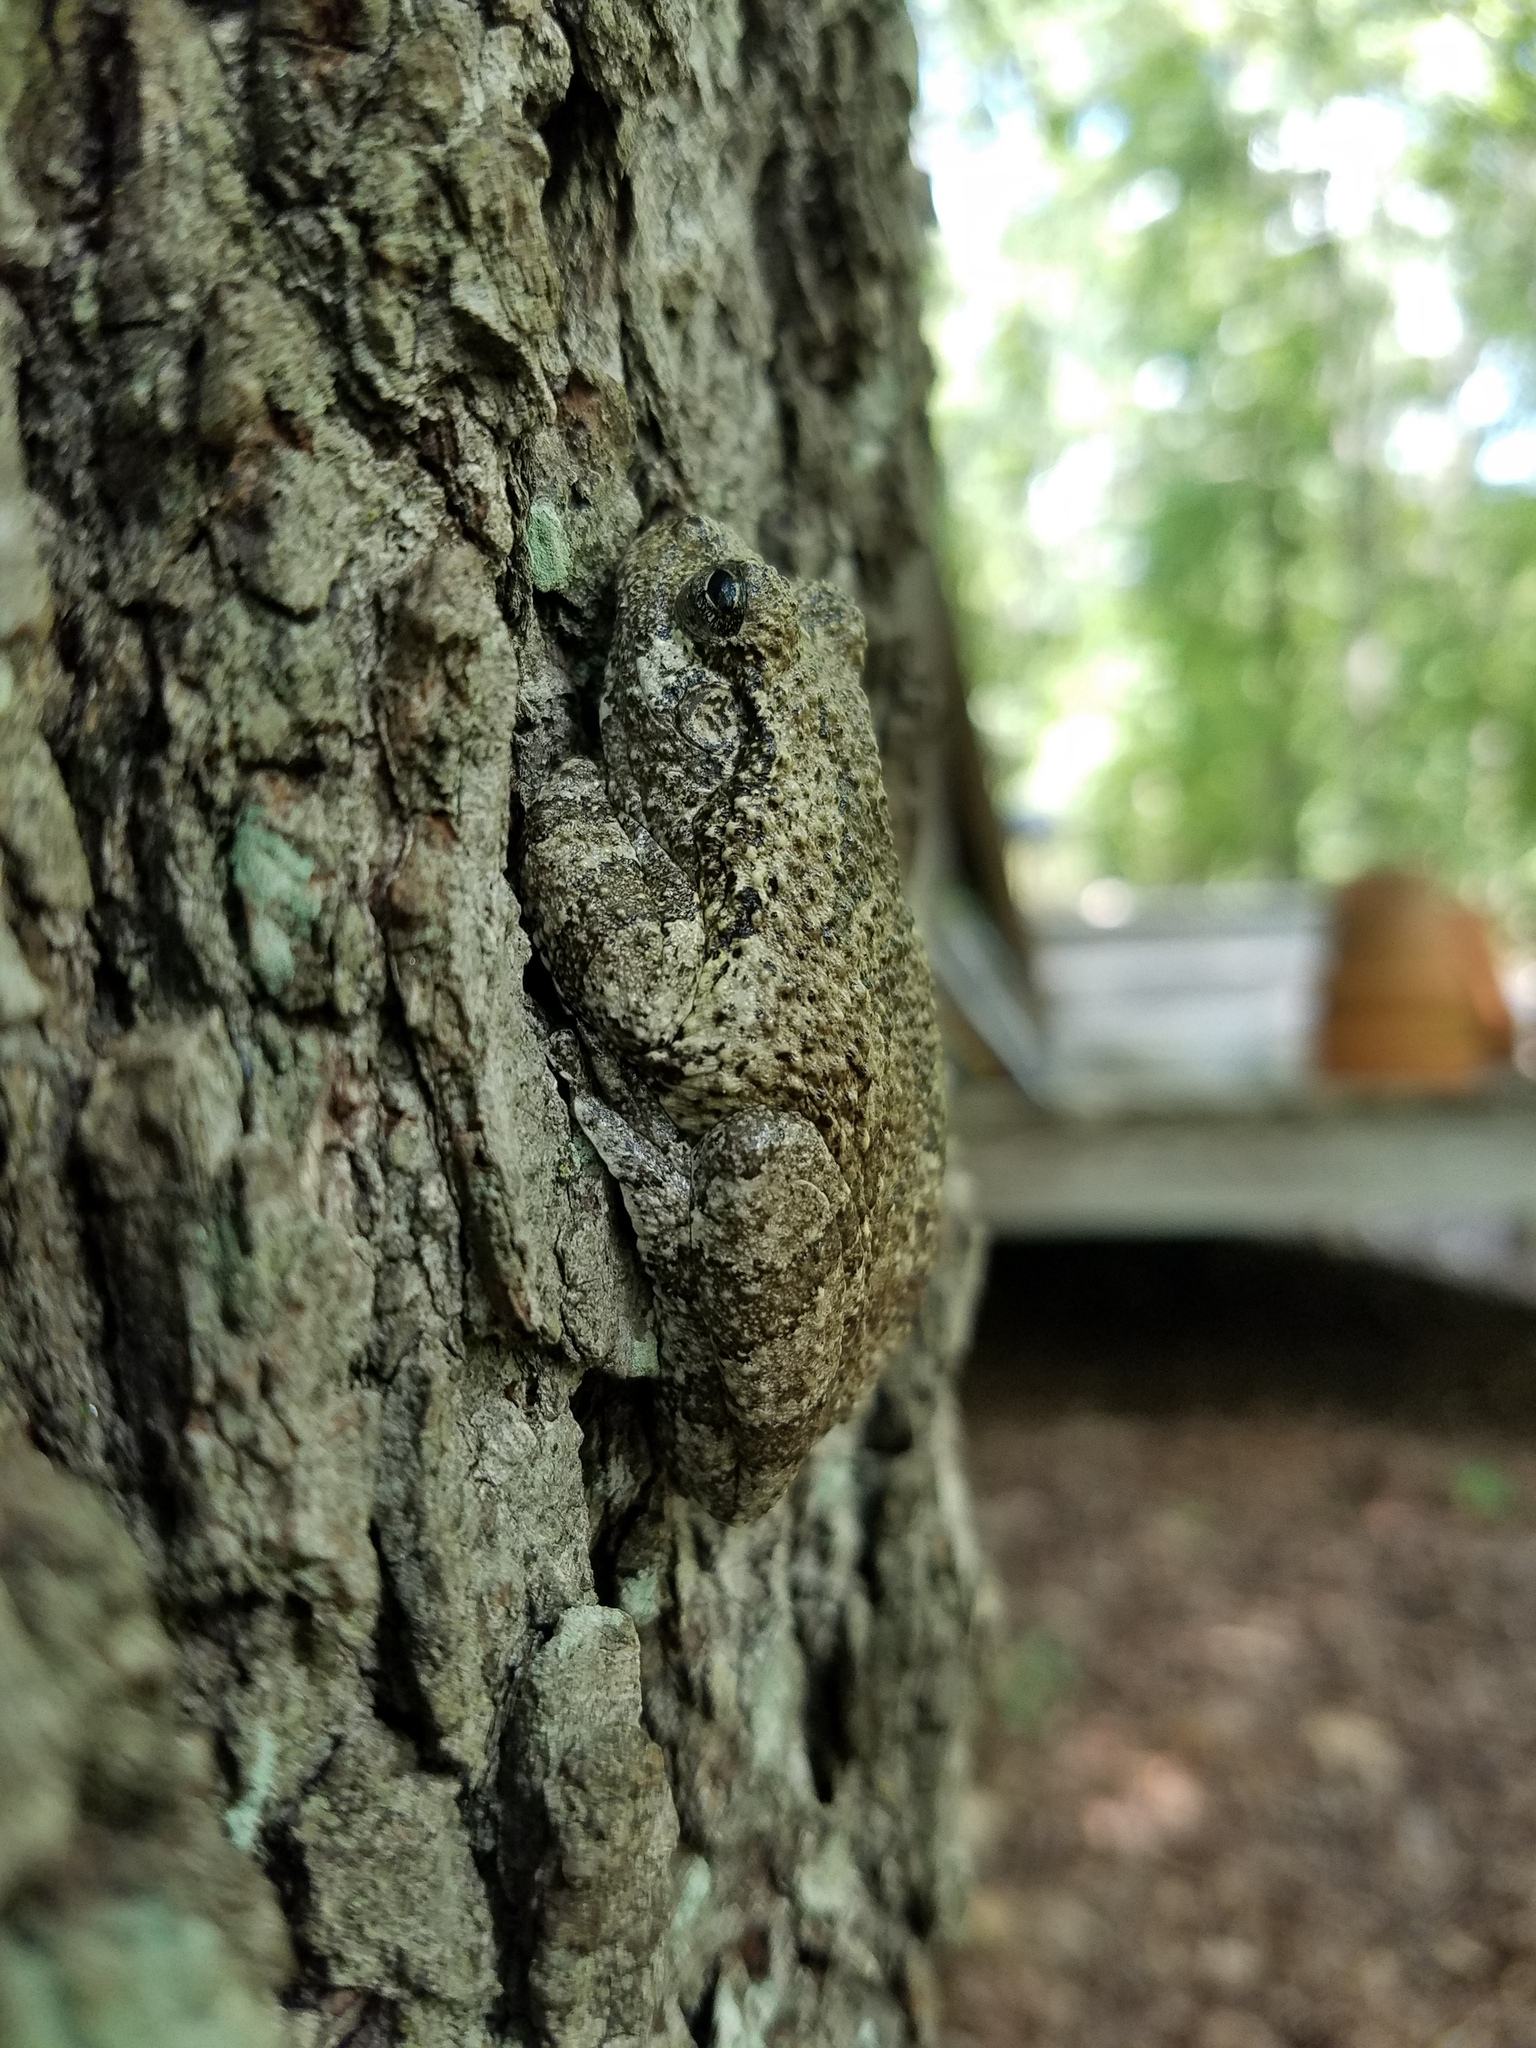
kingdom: Animalia
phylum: Chordata
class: Amphibia
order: Anura
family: Hylidae
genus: Dryophytes
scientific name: Dryophytes chrysoscelis
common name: Cope's gray treefrog
